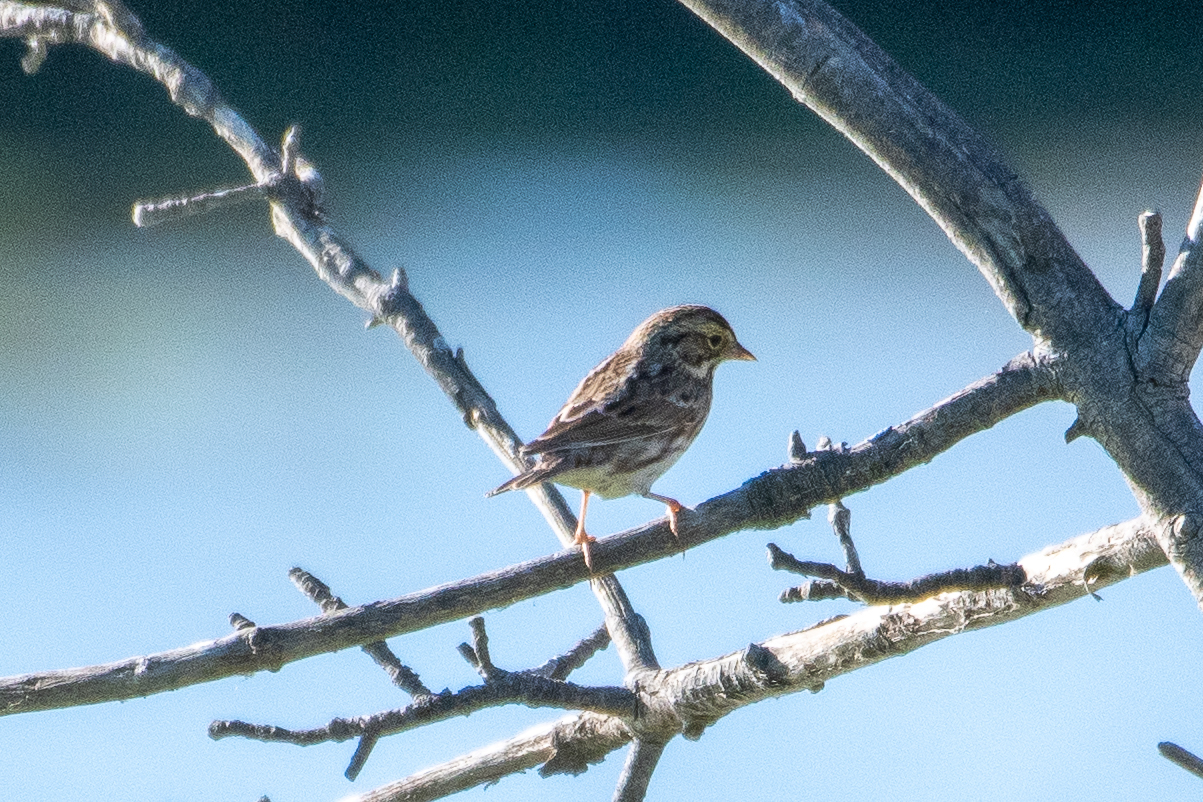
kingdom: Animalia
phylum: Chordata
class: Aves
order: Passeriformes
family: Passerellidae
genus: Passerculus
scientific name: Passerculus sandwichensis
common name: Savannah sparrow
